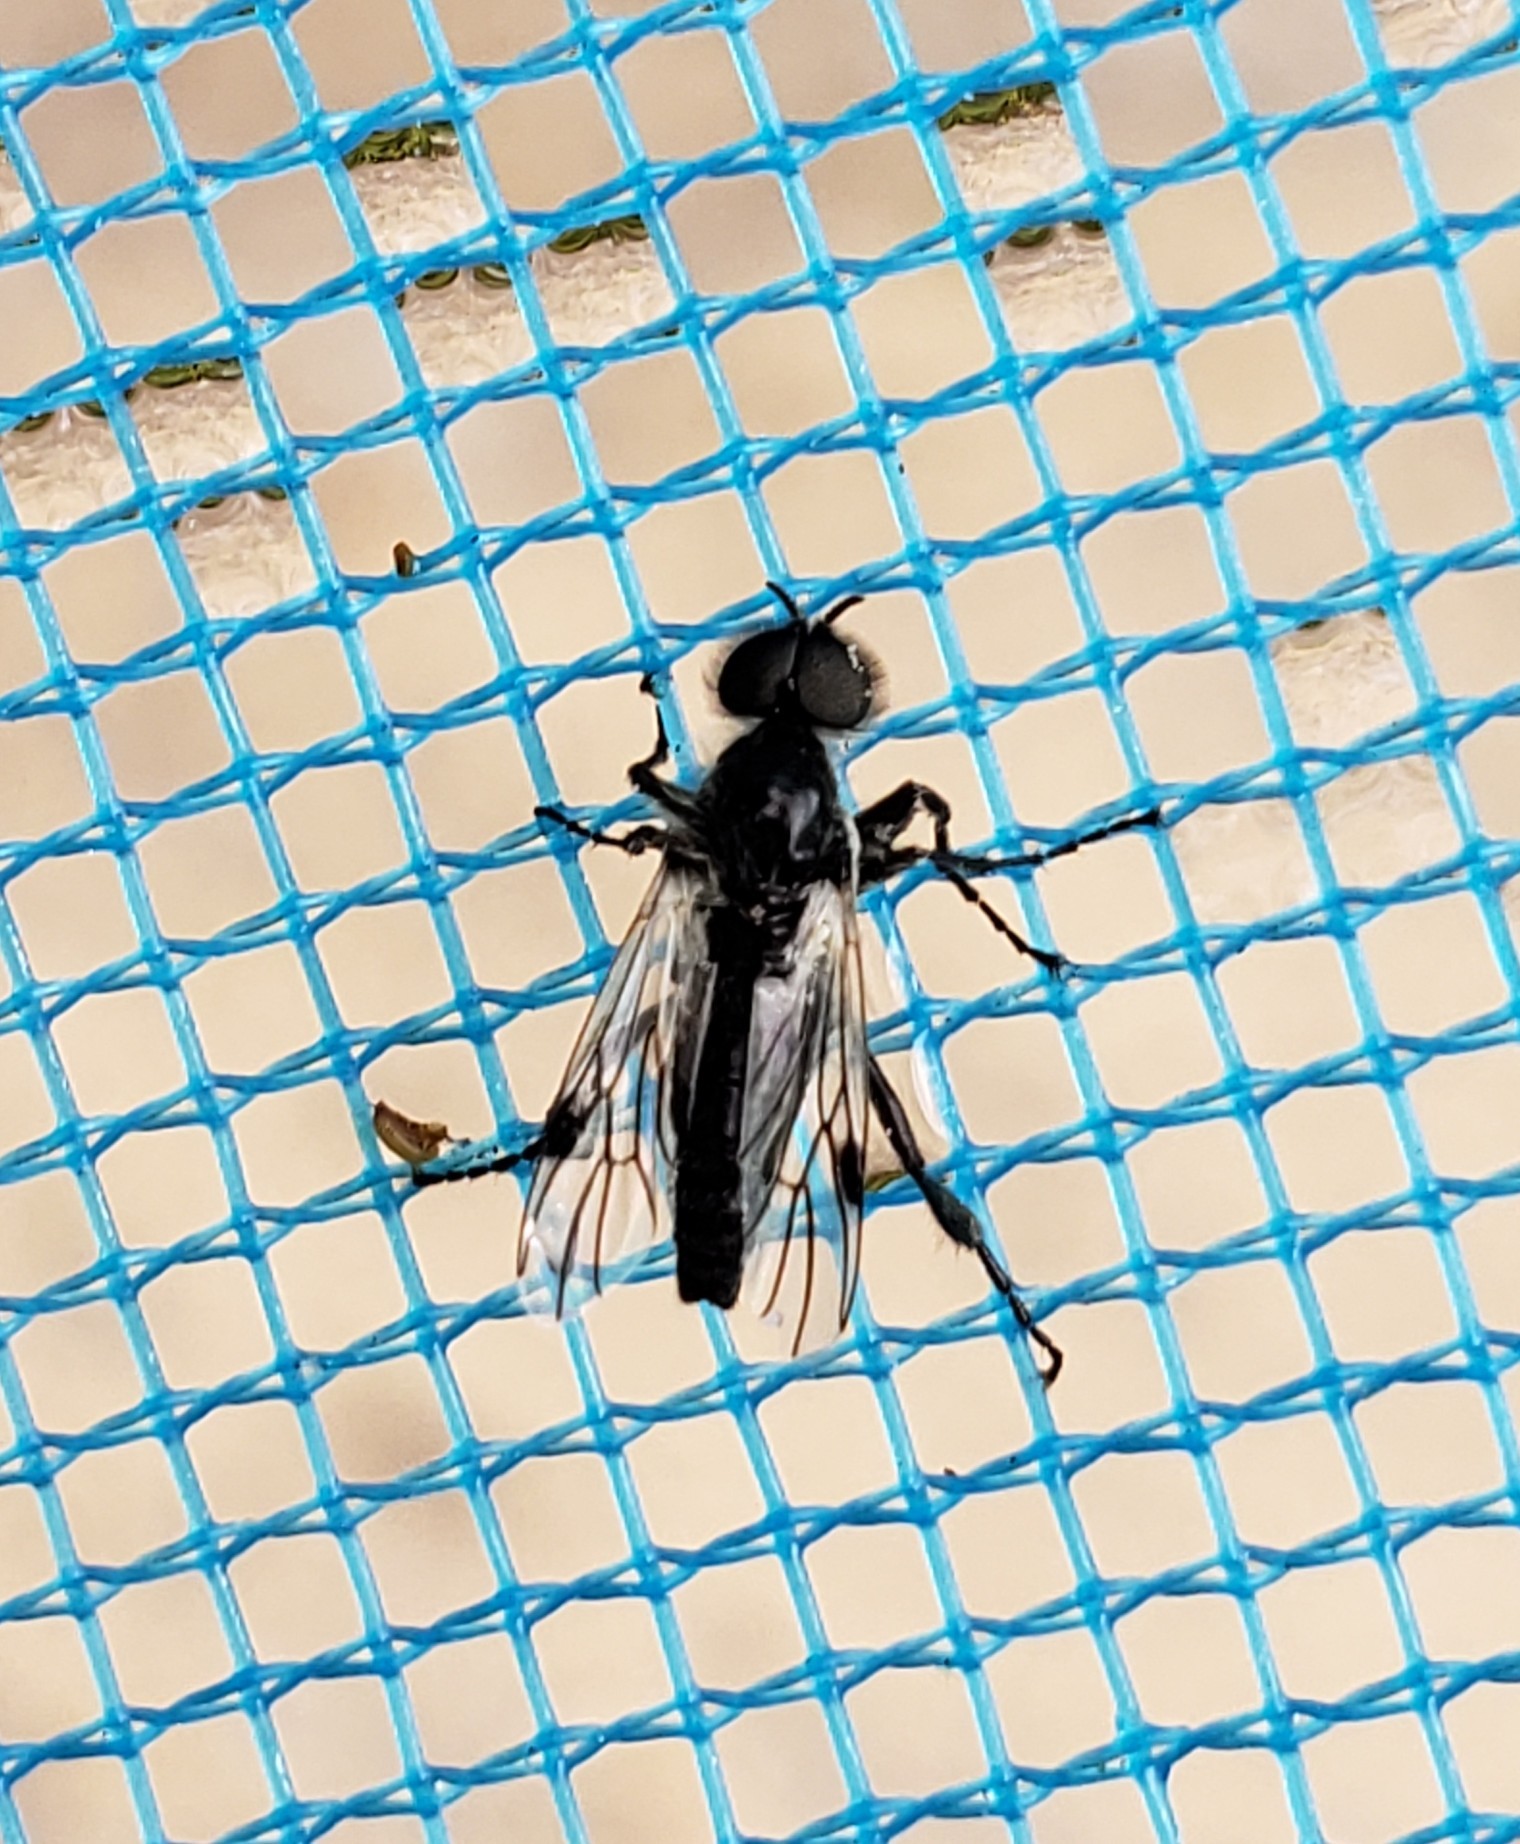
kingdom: Animalia
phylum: Arthropoda
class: Insecta
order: Diptera
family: Bibionidae
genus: Bibio
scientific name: Bibio albipennis
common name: White-winged march fly
